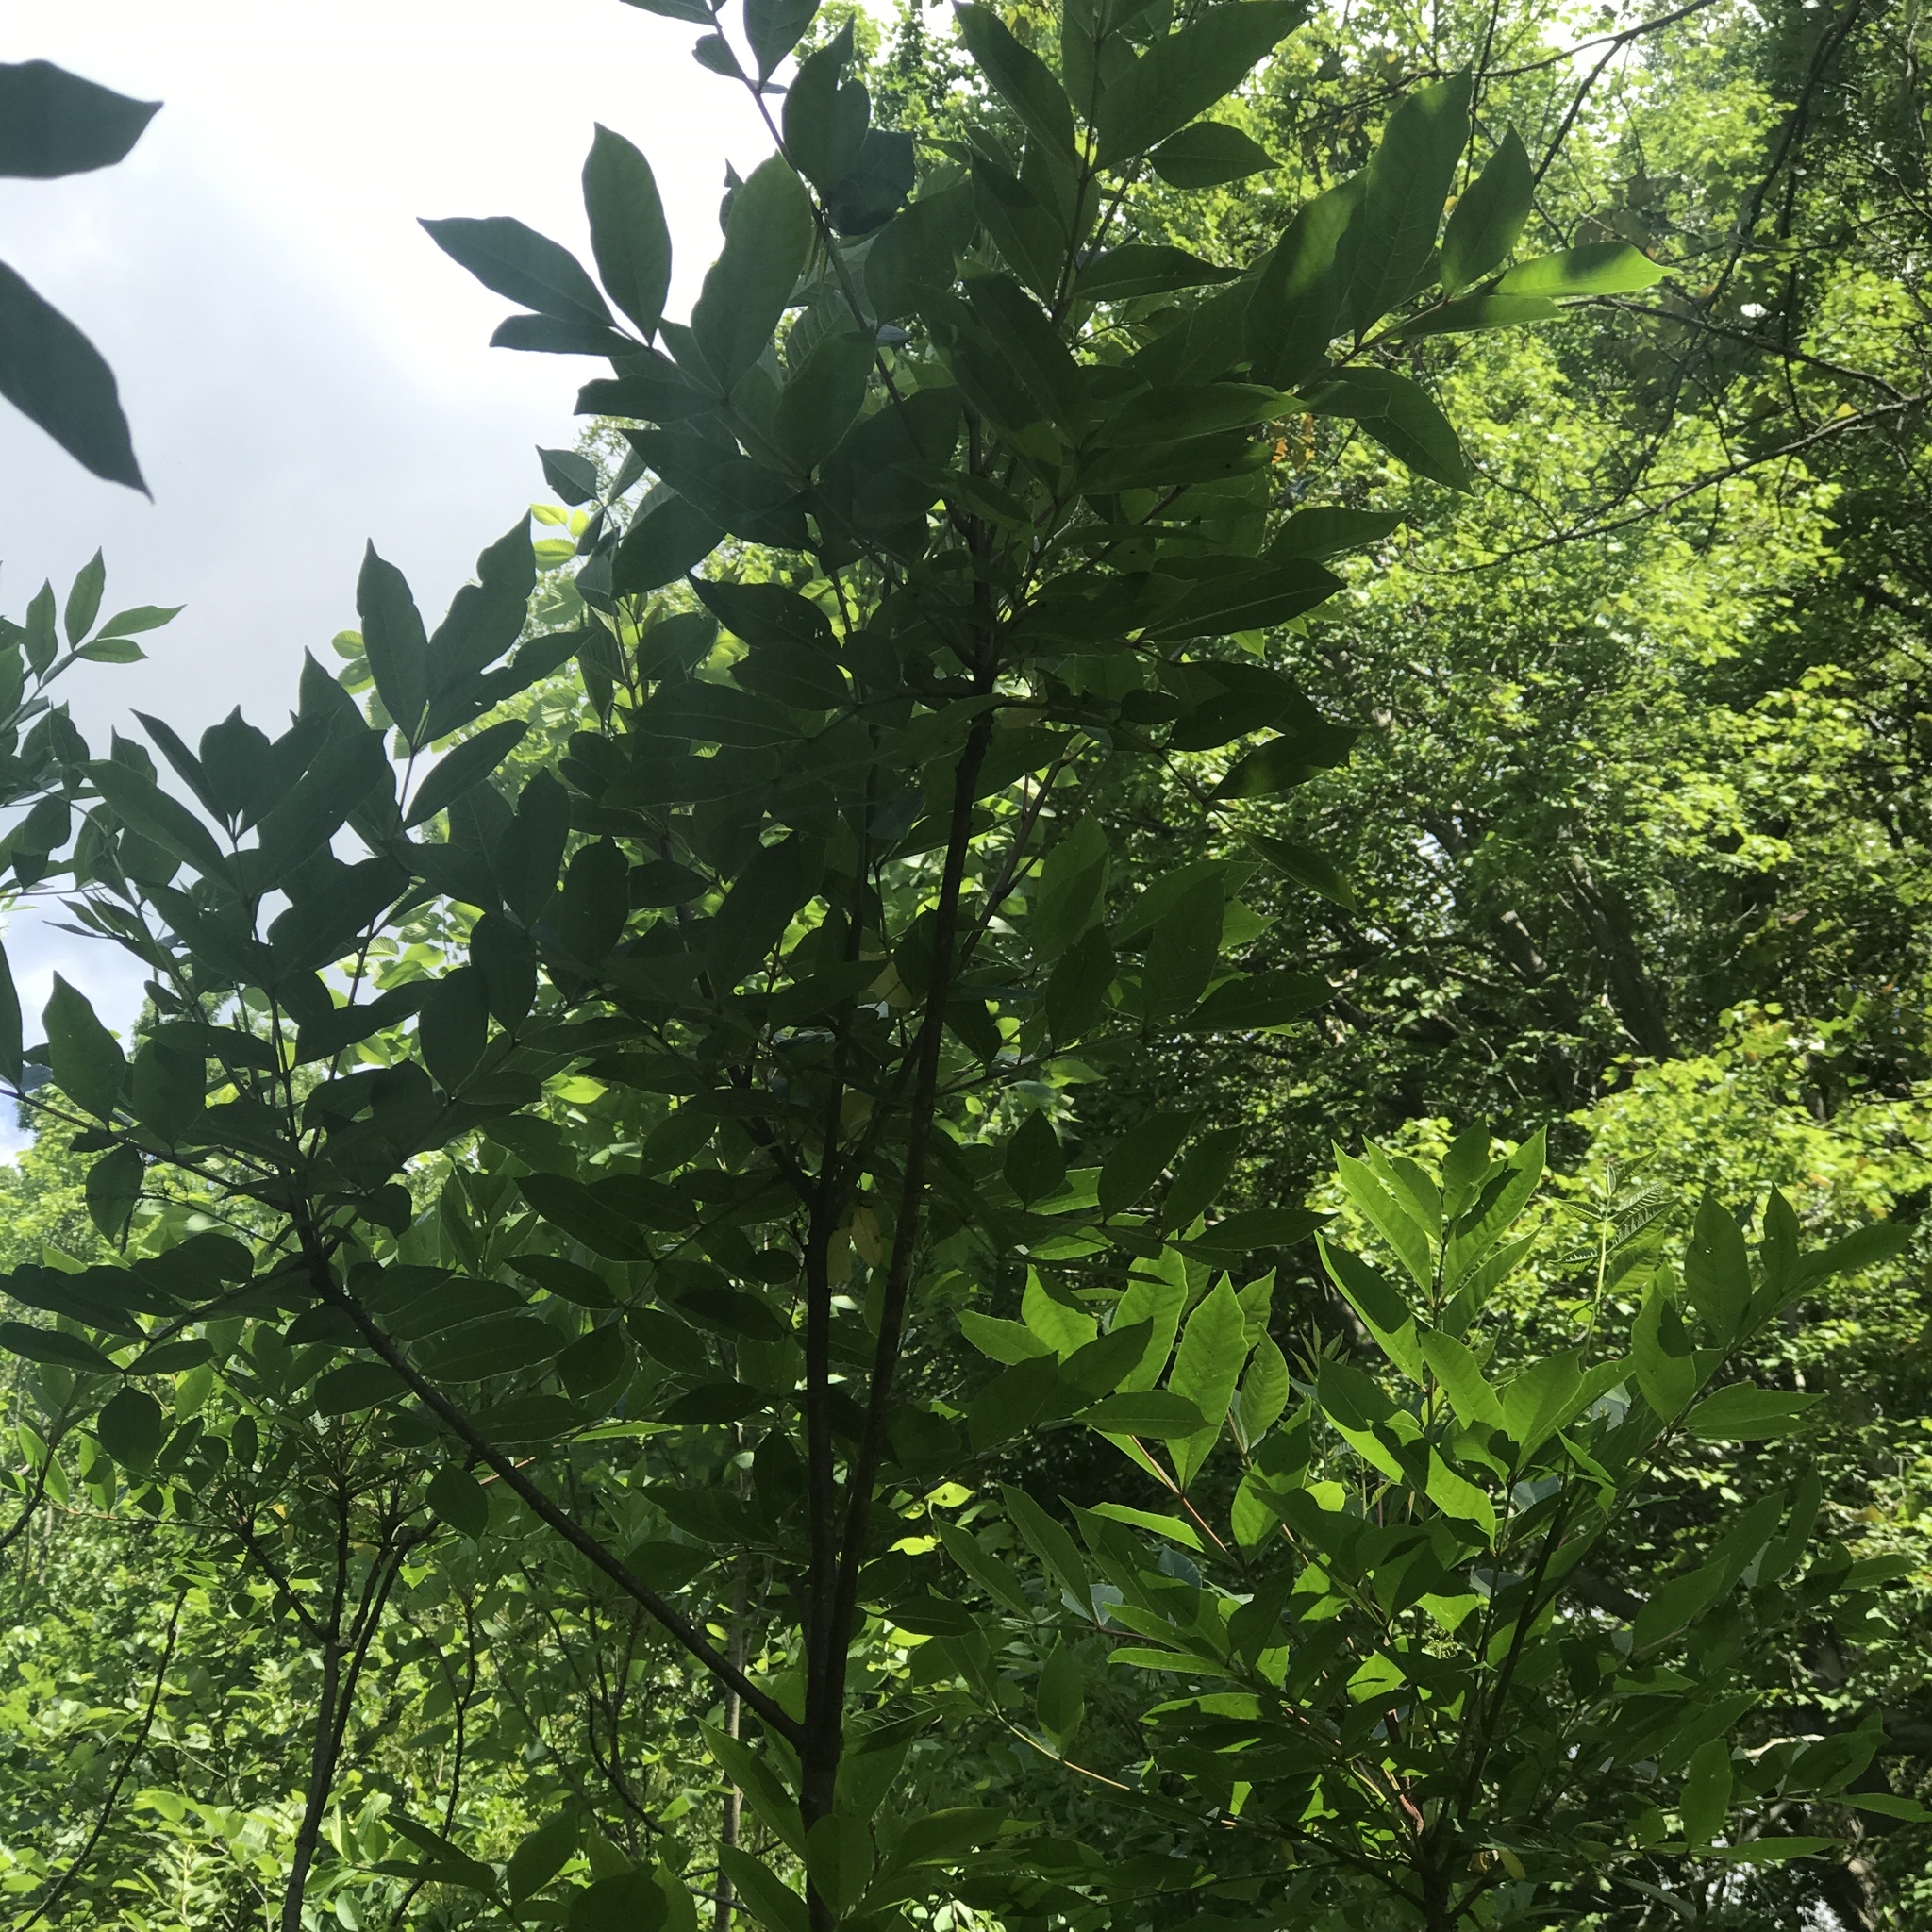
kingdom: Plantae
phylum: Tracheophyta
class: Magnoliopsida
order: Sapindales
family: Anacardiaceae
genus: Toxicodendron
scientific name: Toxicodendron vernix
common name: Poison sumac
